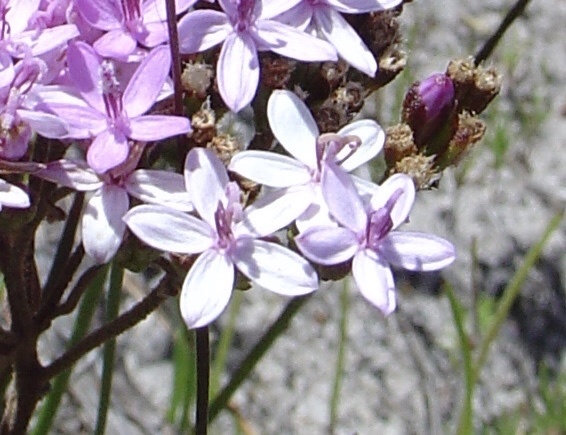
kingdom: Plantae
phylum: Tracheophyta
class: Magnoliopsida
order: Asterales
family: Asteraceae
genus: Corymbium
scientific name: Corymbium africanum
